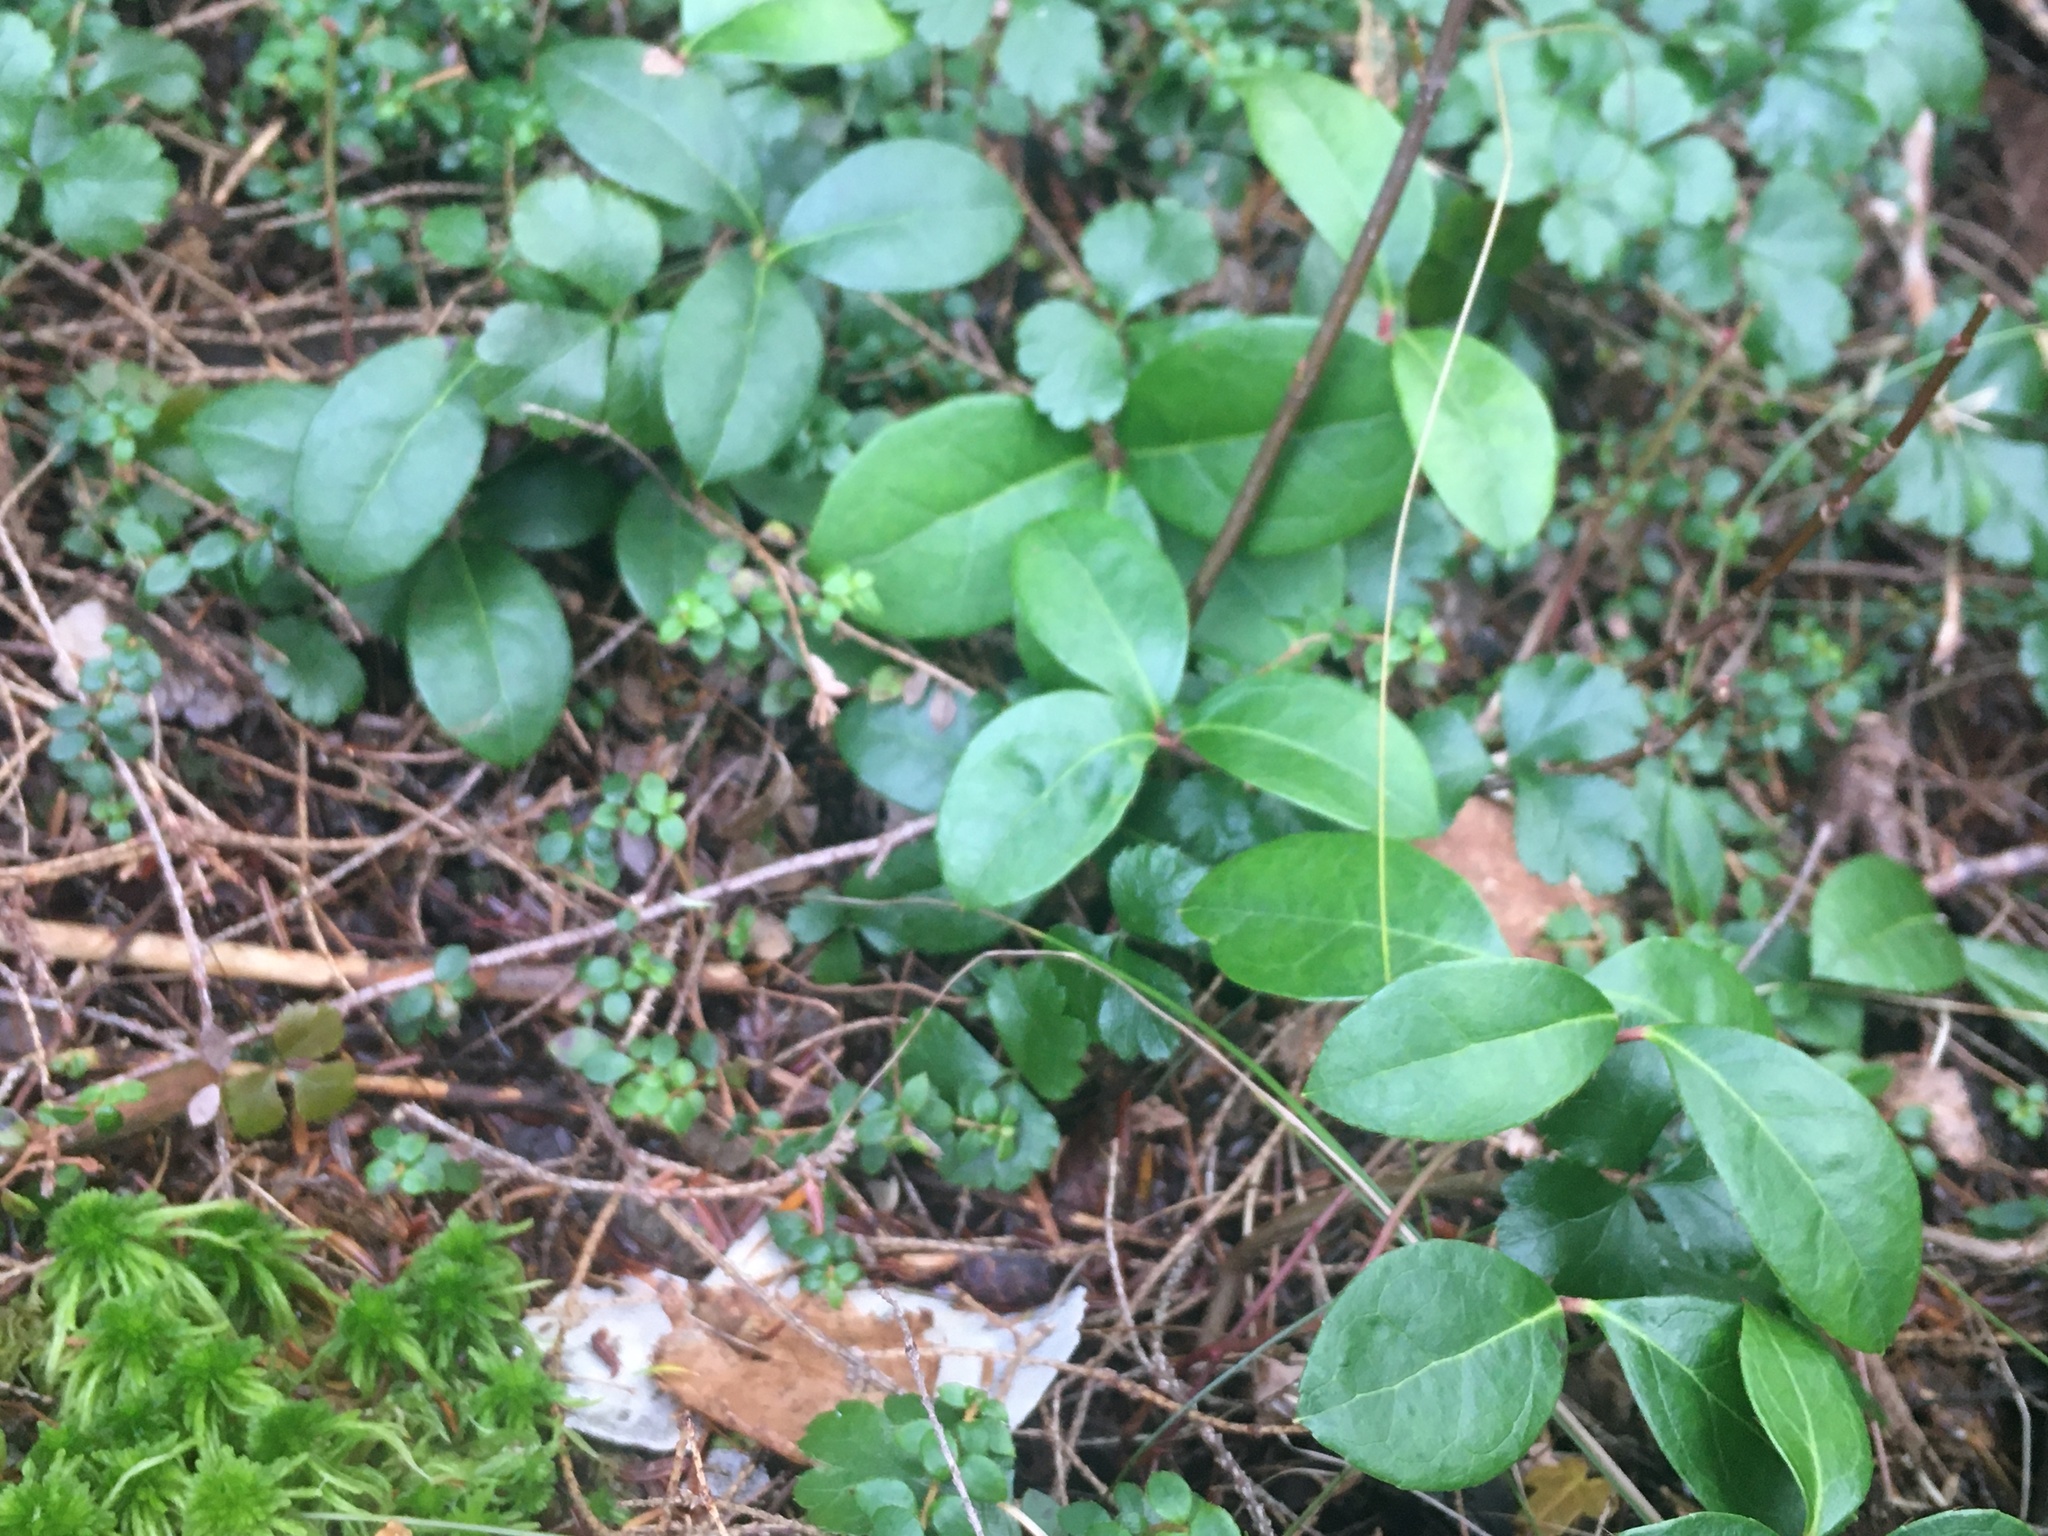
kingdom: Plantae
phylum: Tracheophyta
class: Magnoliopsida
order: Ericales
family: Ericaceae
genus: Gaultheria
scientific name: Gaultheria procumbens
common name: Checkerberry
